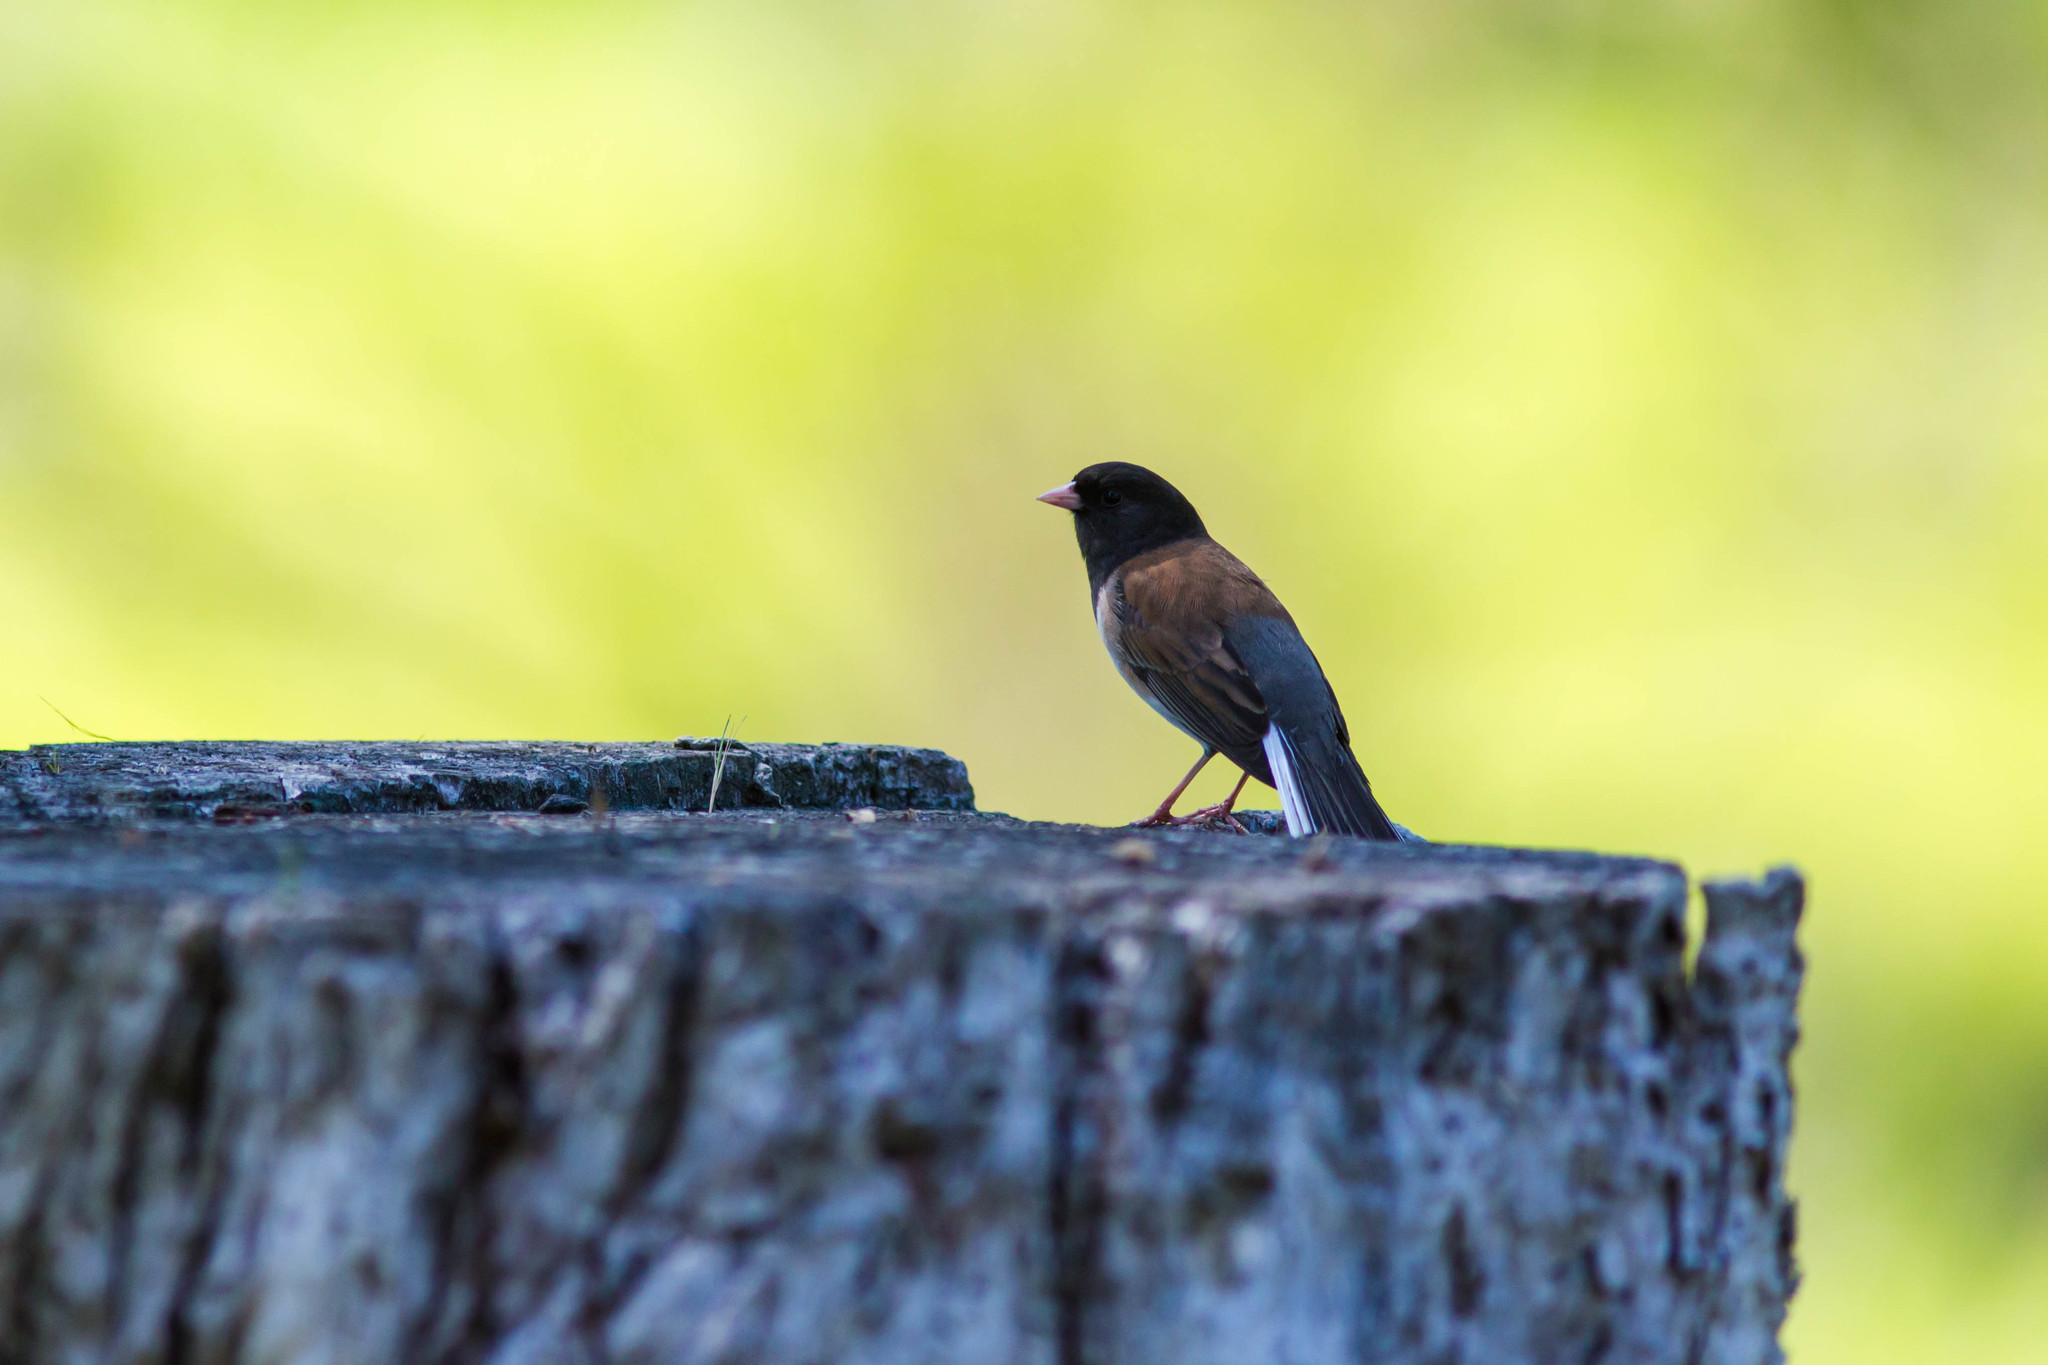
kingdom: Animalia
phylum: Chordata
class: Aves
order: Passeriformes
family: Passerellidae
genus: Junco
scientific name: Junco hyemalis
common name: Dark-eyed junco
